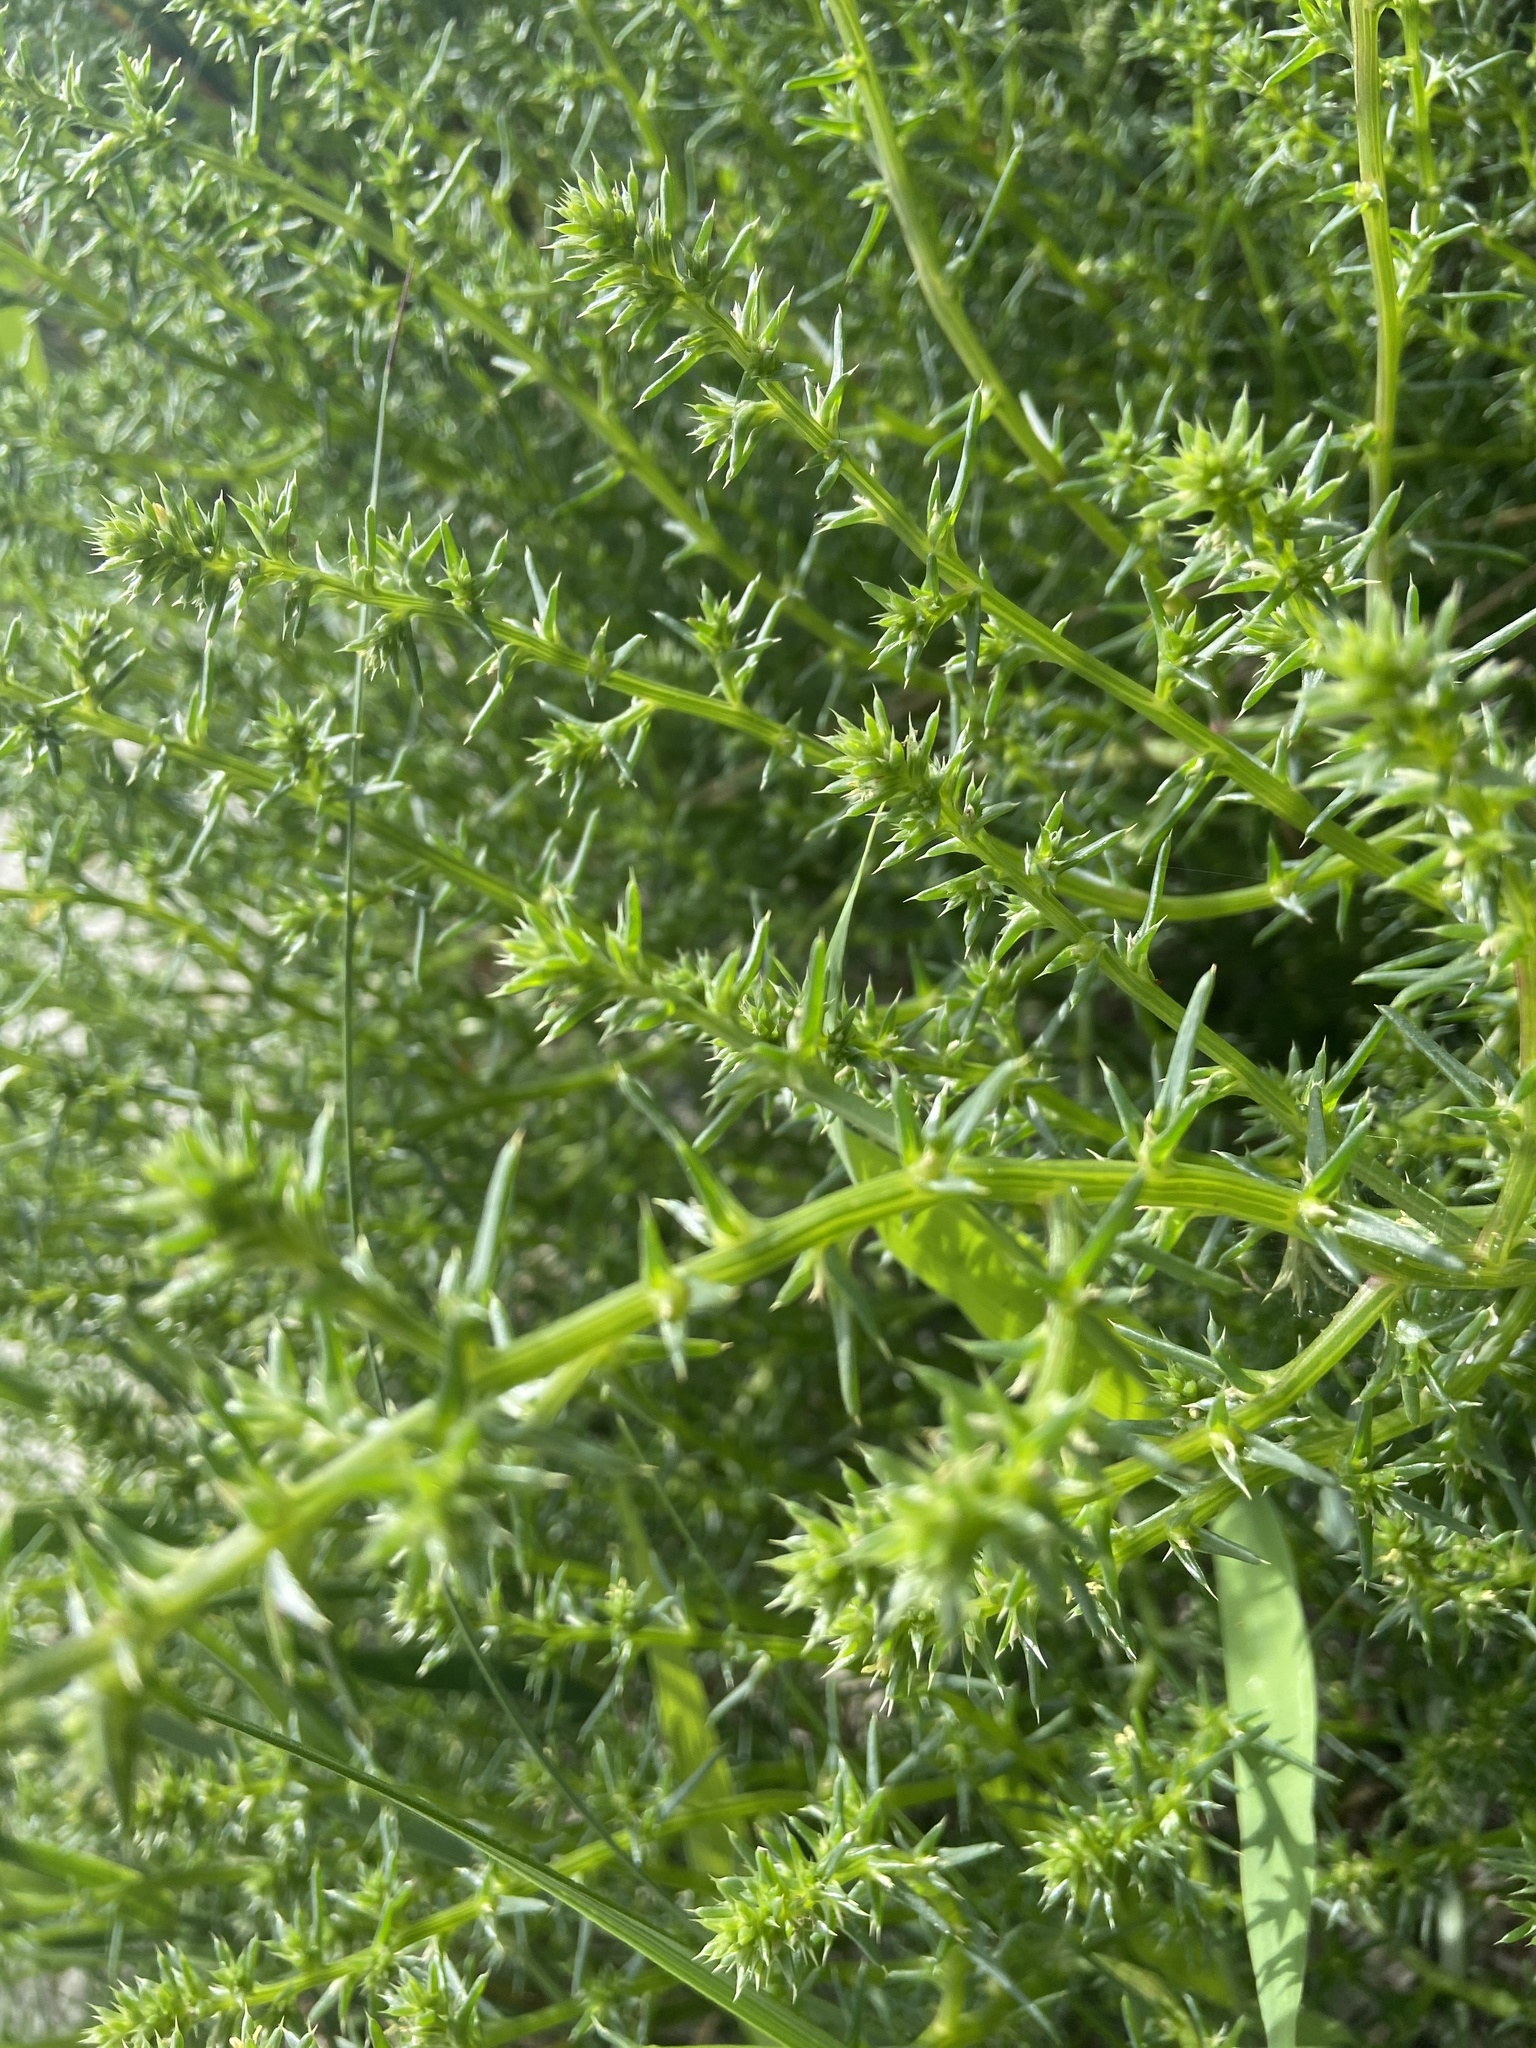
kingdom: Plantae
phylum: Tracheophyta
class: Magnoliopsida
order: Caryophyllales
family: Amaranthaceae
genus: Salsola
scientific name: Salsola kali
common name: Saltwort
